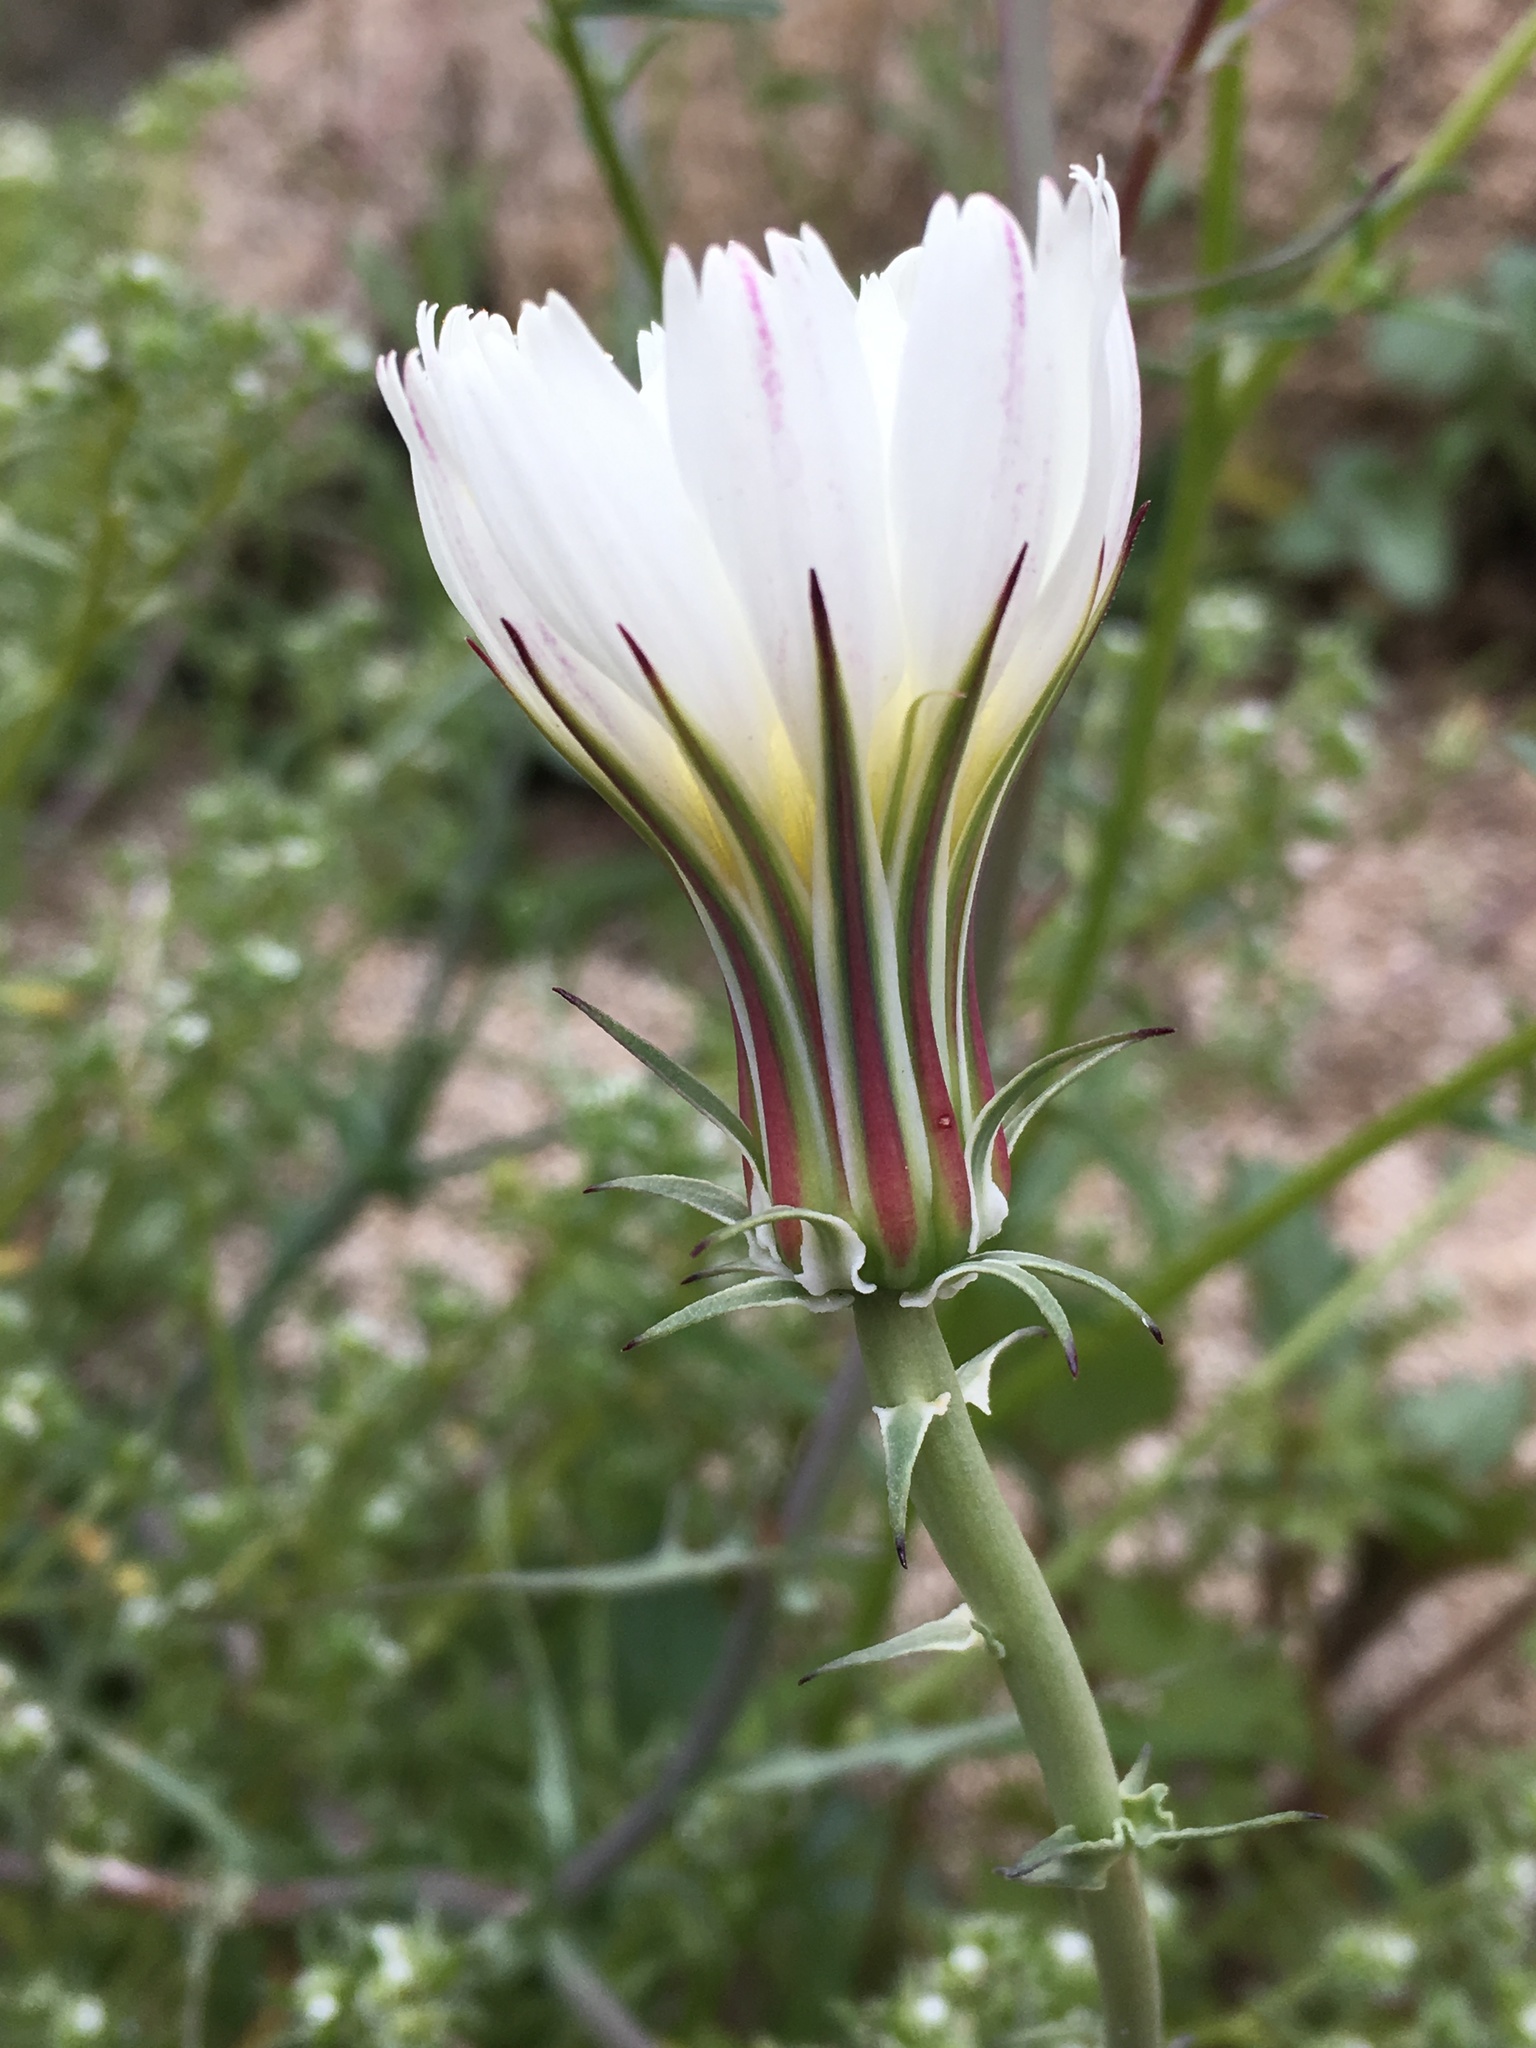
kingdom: Plantae
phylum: Tracheophyta
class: Magnoliopsida
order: Asterales
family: Asteraceae
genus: Rafinesquia
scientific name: Rafinesquia neomexicana
